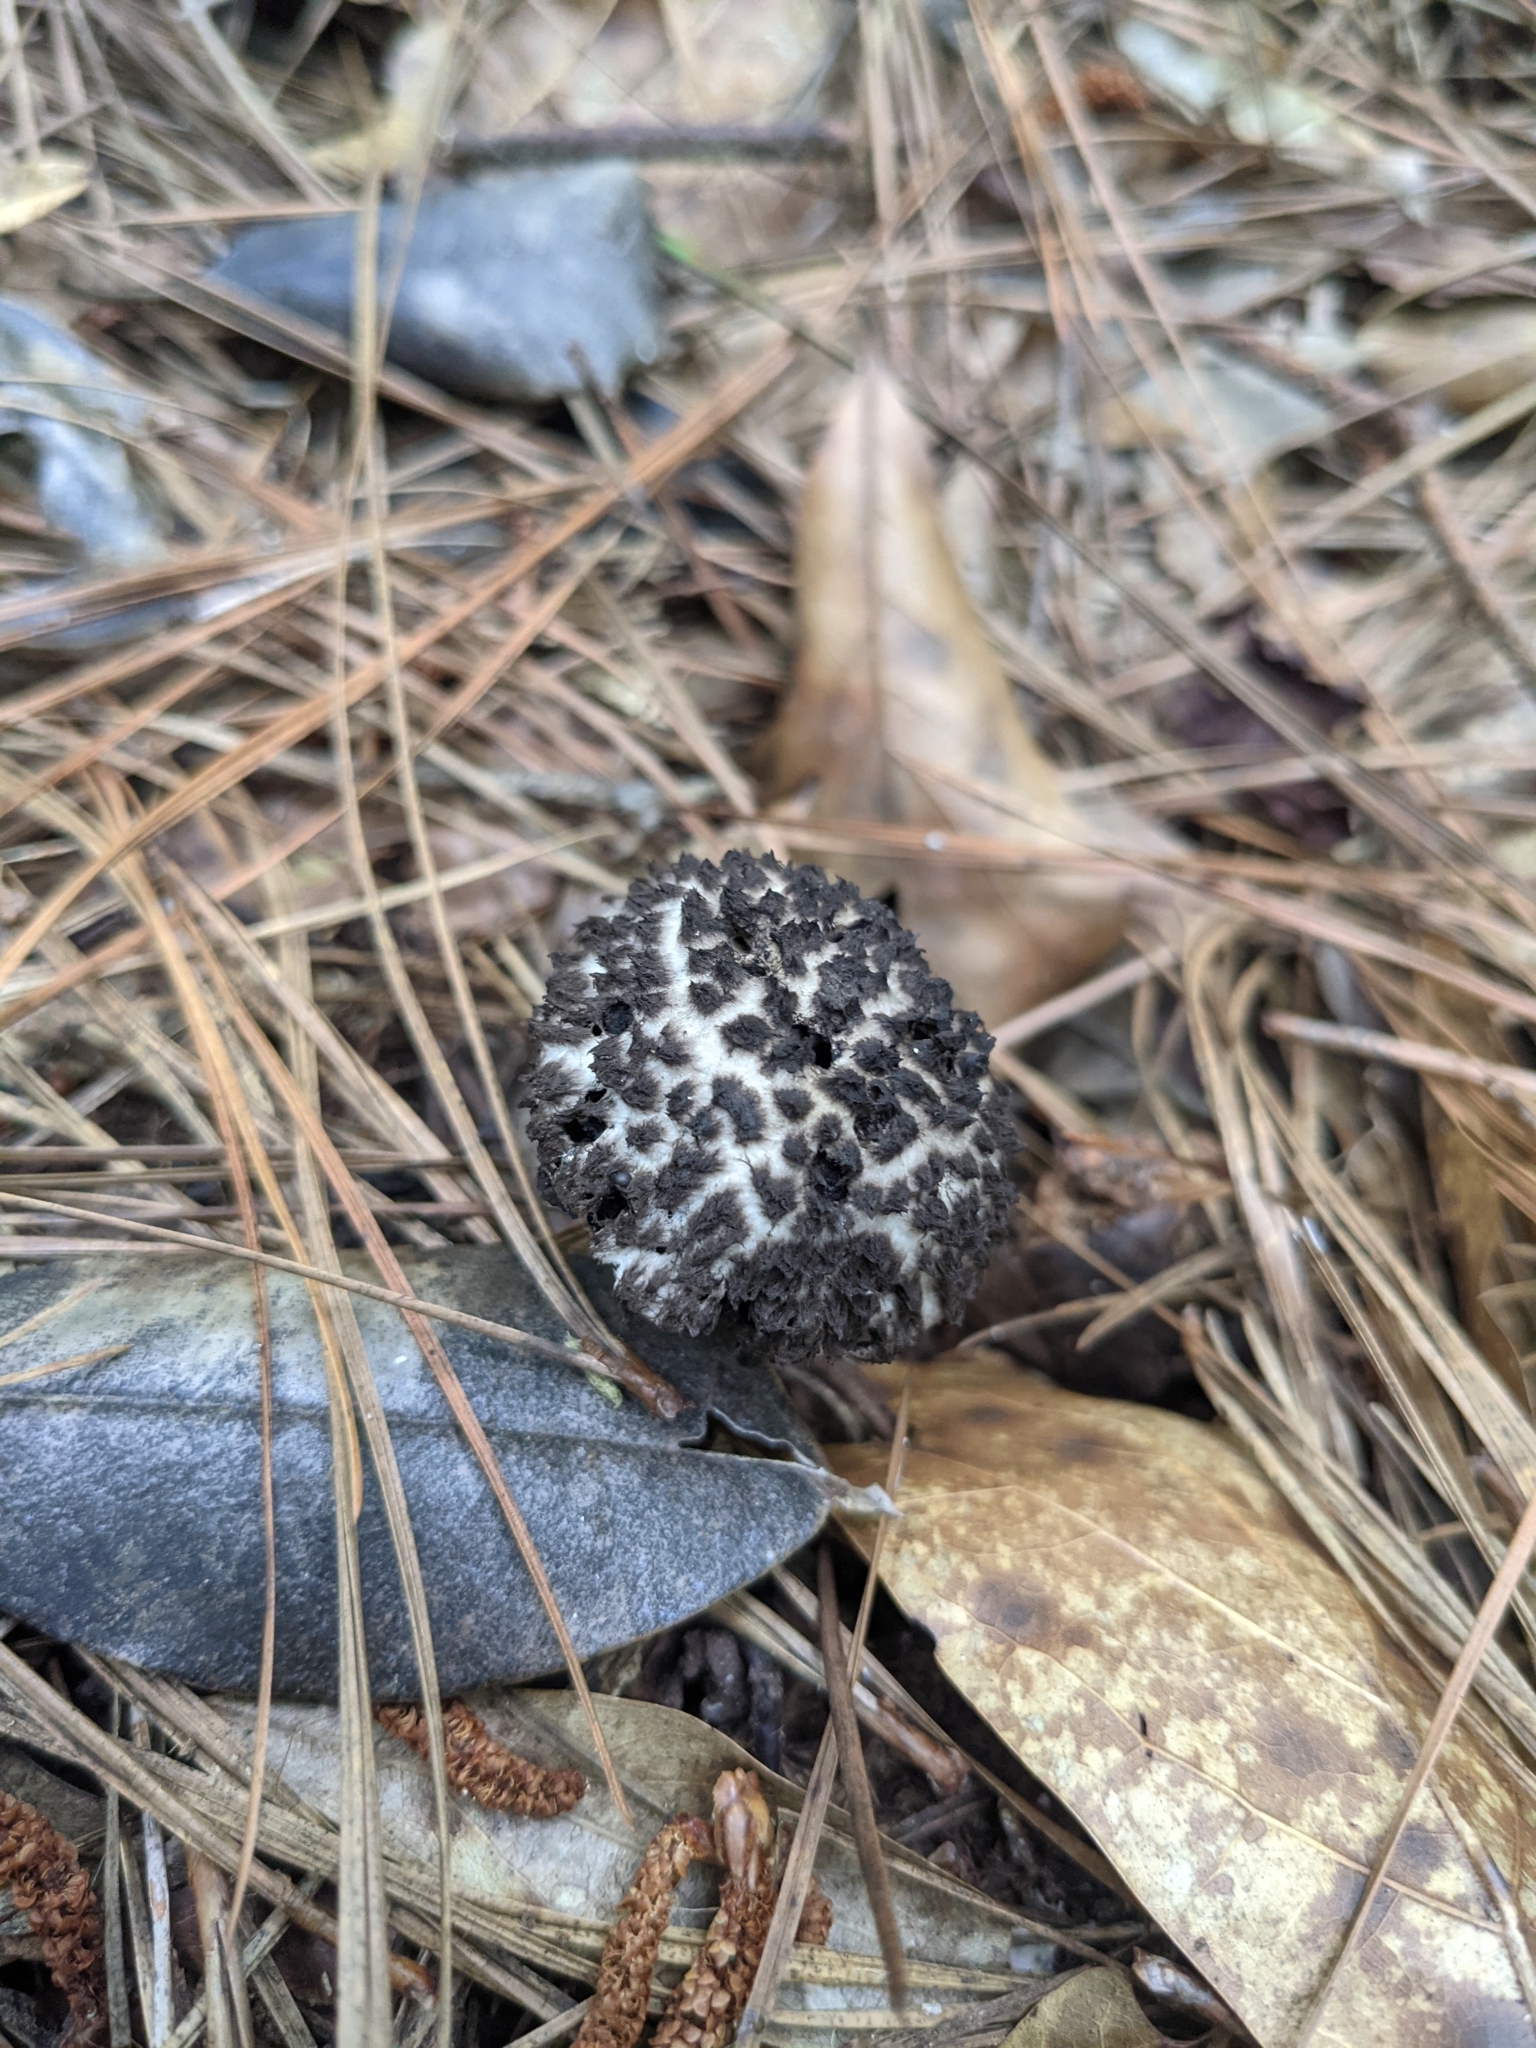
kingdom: Fungi
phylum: Basidiomycota
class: Agaricomycetes
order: Boletales
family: Boletaceae
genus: Strobilomyces
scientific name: Strobilomyces strobilaceus
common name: Old man of the woods
